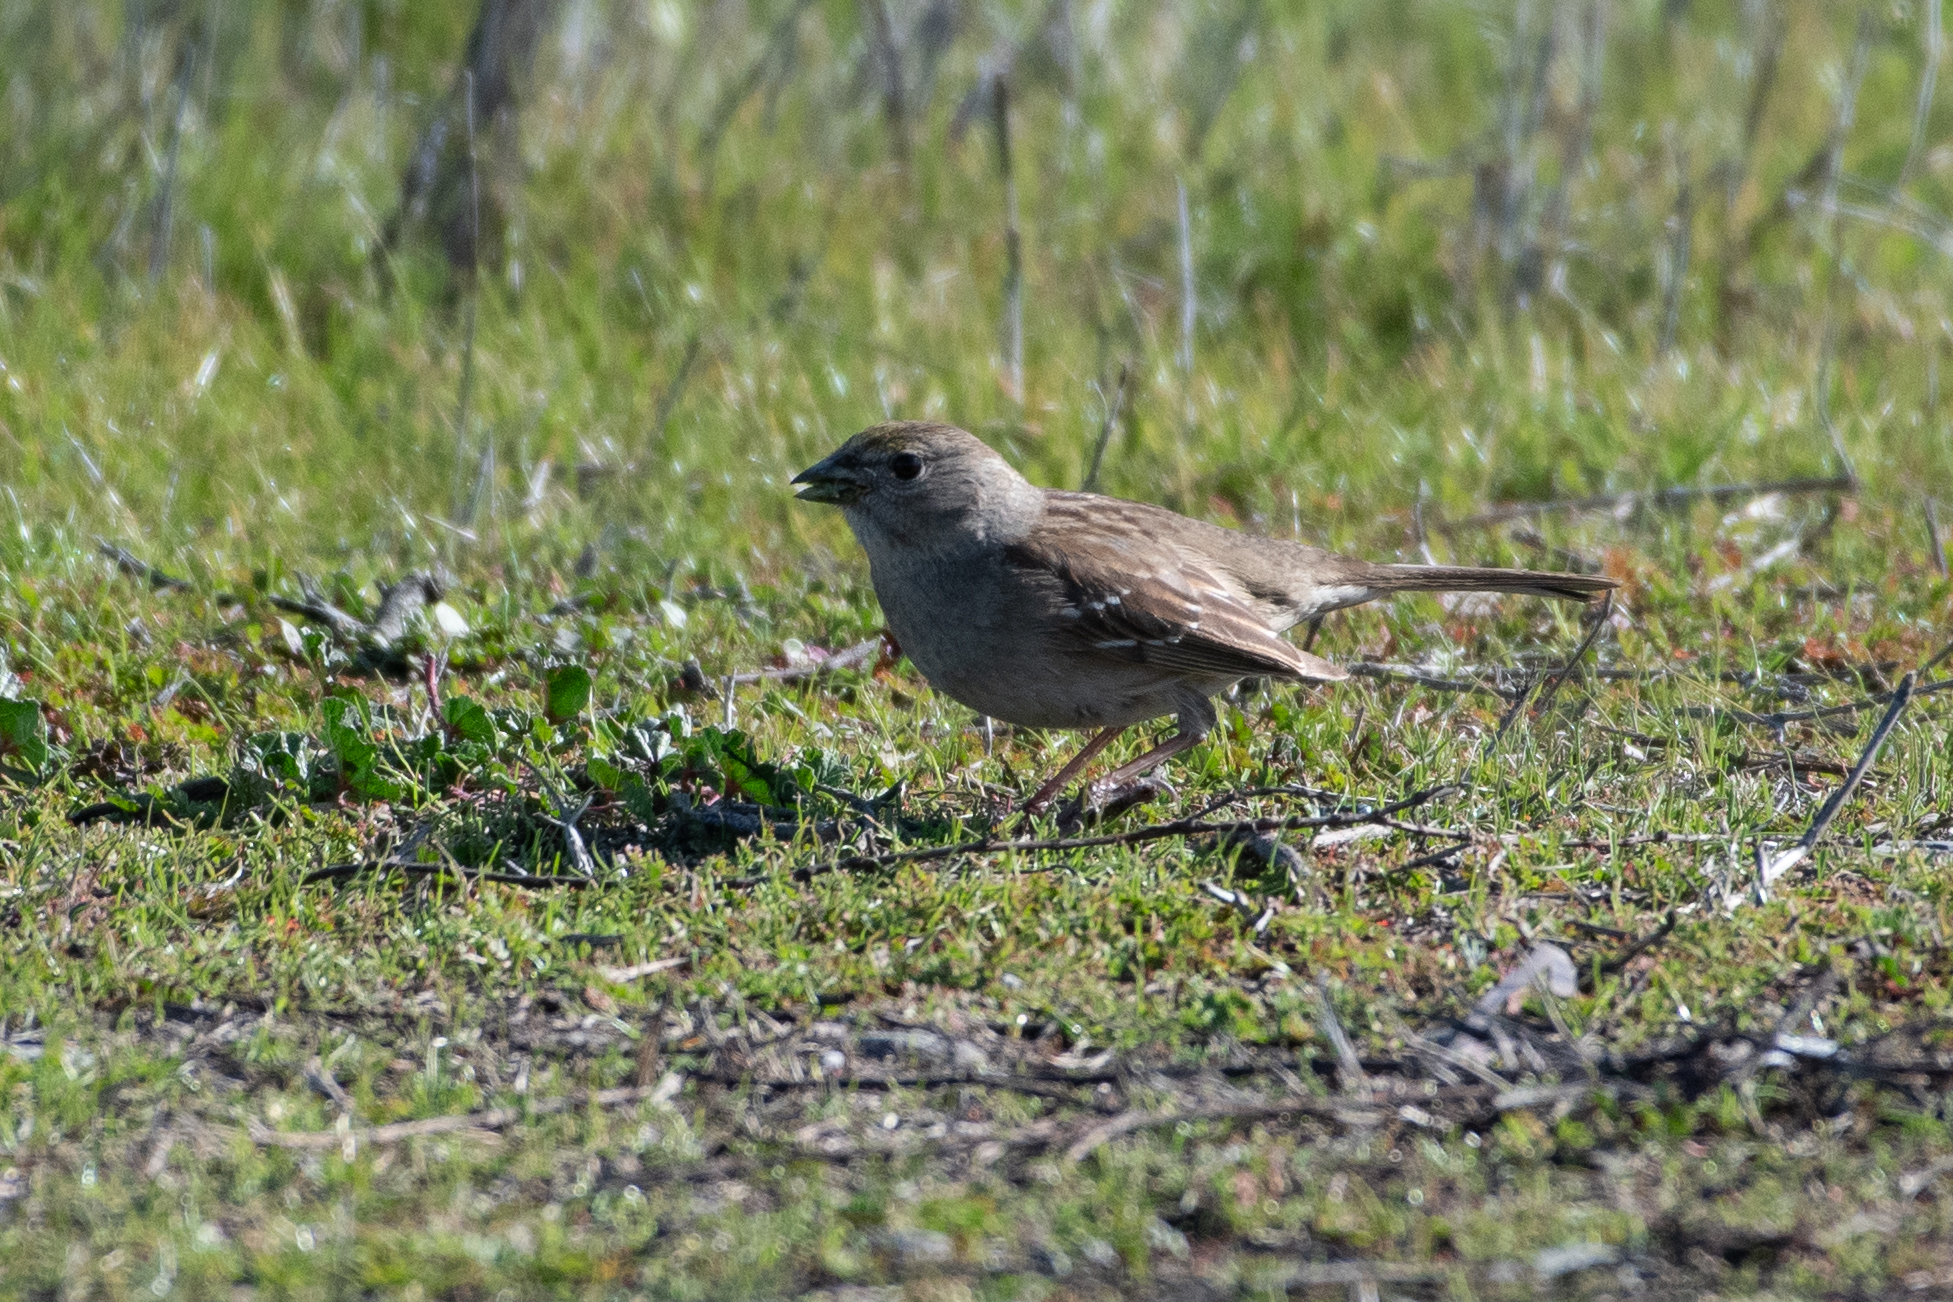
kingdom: Animalia
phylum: Chordata
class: Aves
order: Passeriformes
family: Passerellidae
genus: Zonotrichia
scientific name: Zonotrichia atricapilla
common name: Golden-crowned sparrow
